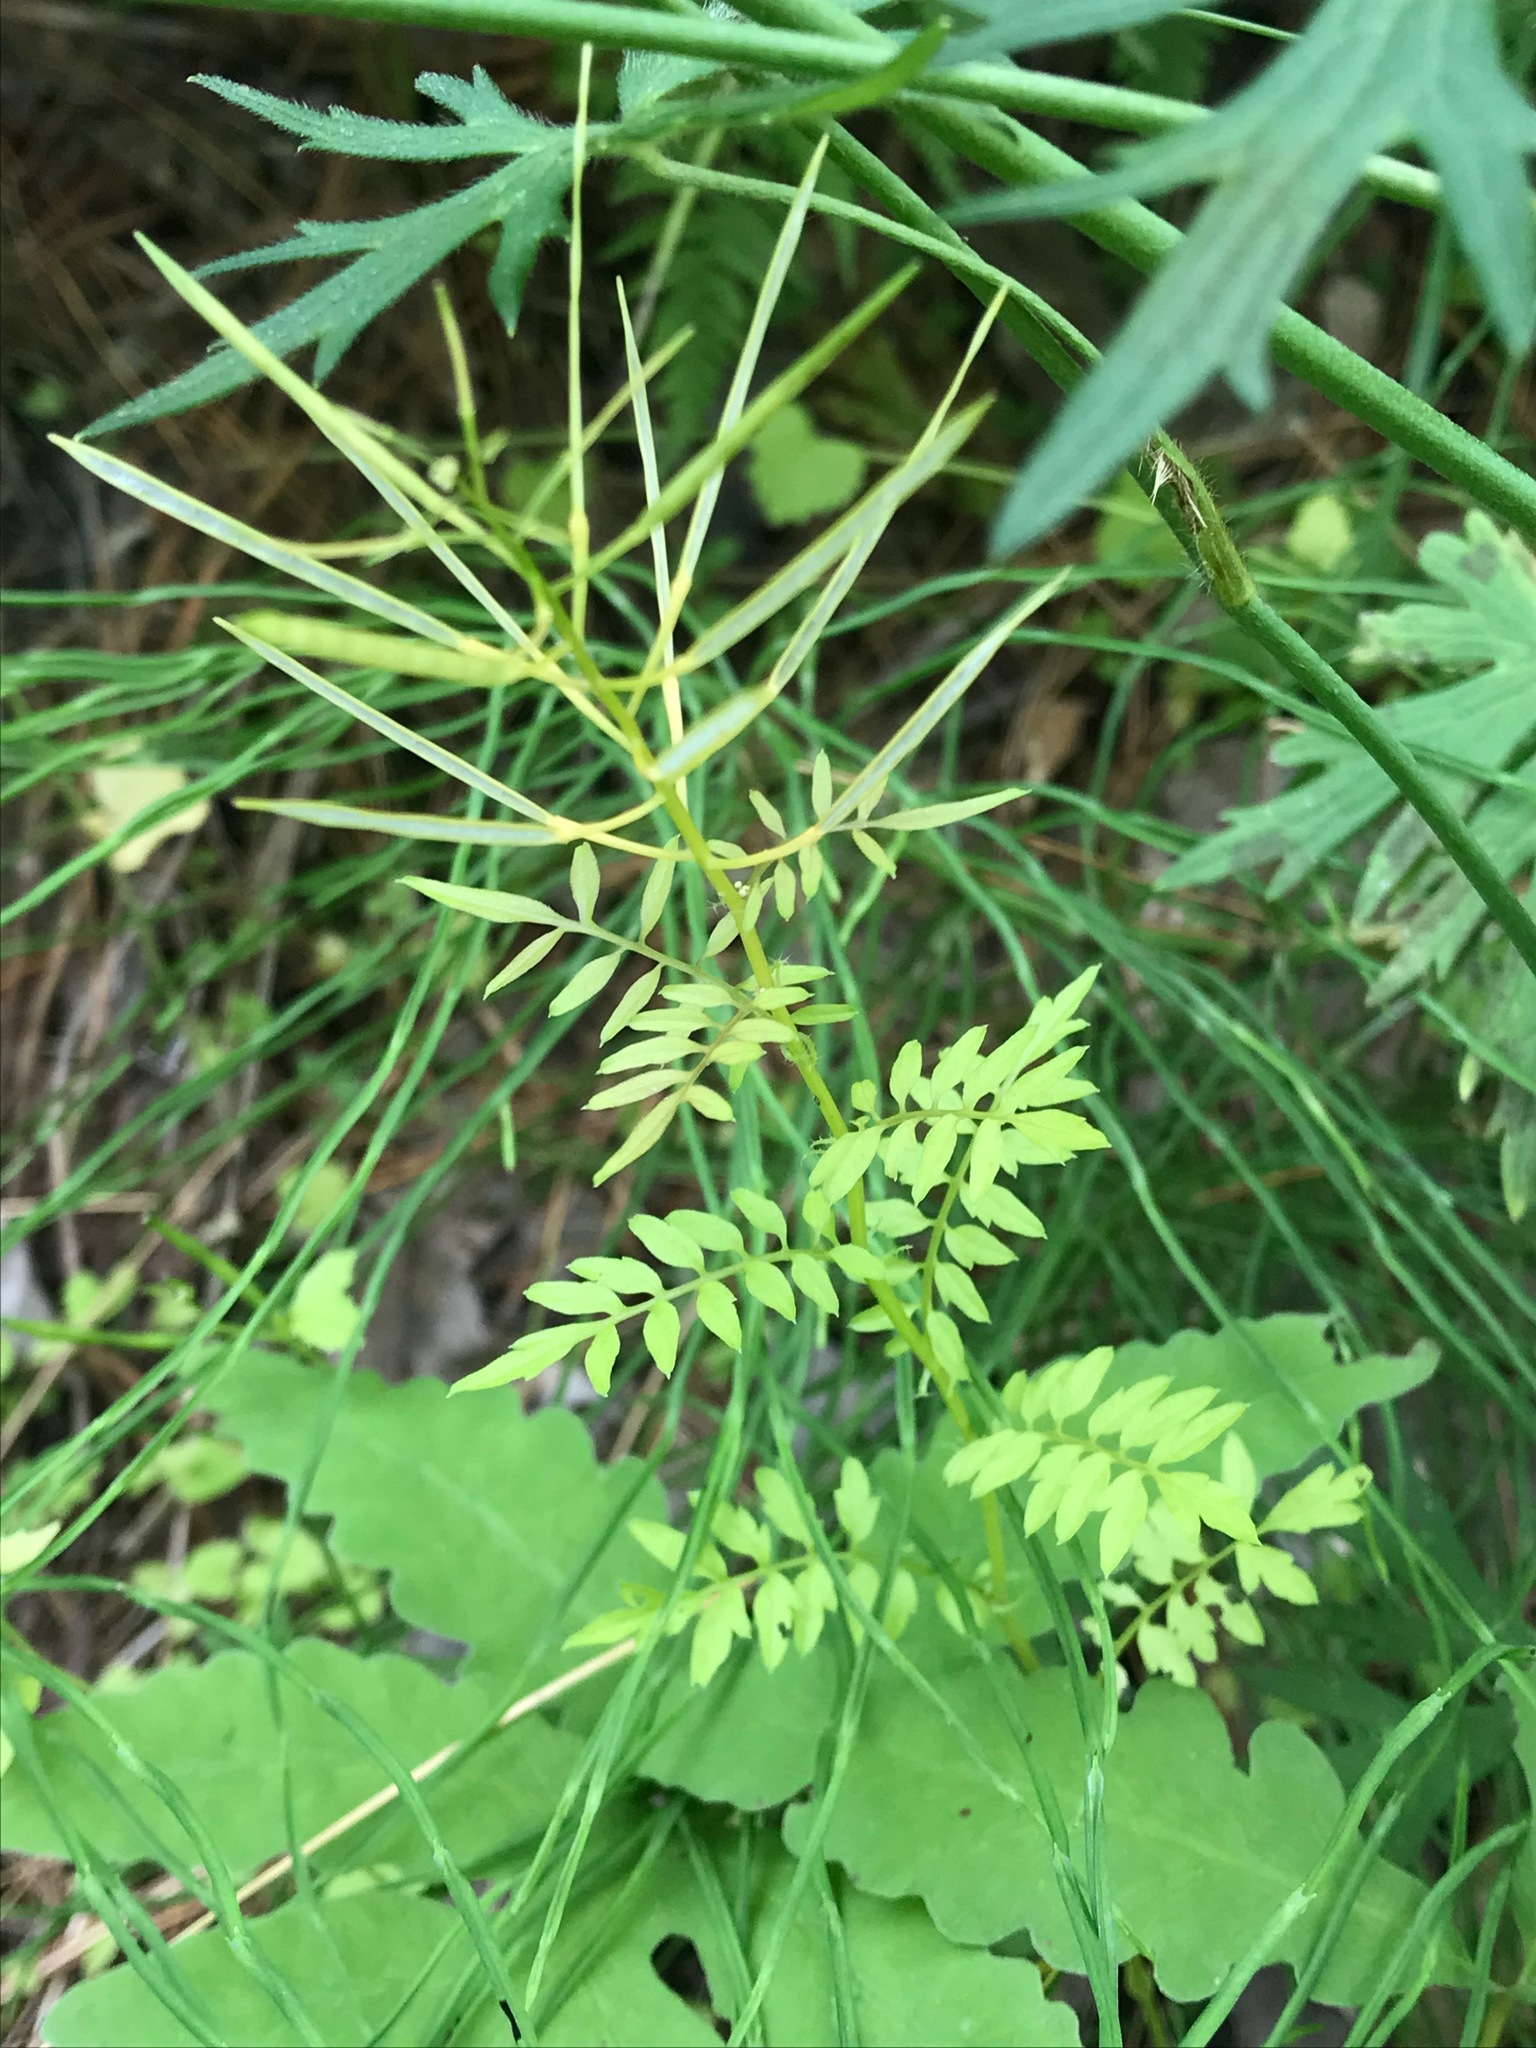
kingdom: Plantae
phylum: Tracheophyta
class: Magnoliopsida
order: Brassicales
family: Brassicaceae
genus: Cardamine
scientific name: Cardamine impatiens
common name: Narrow-leaved bitter-cress
